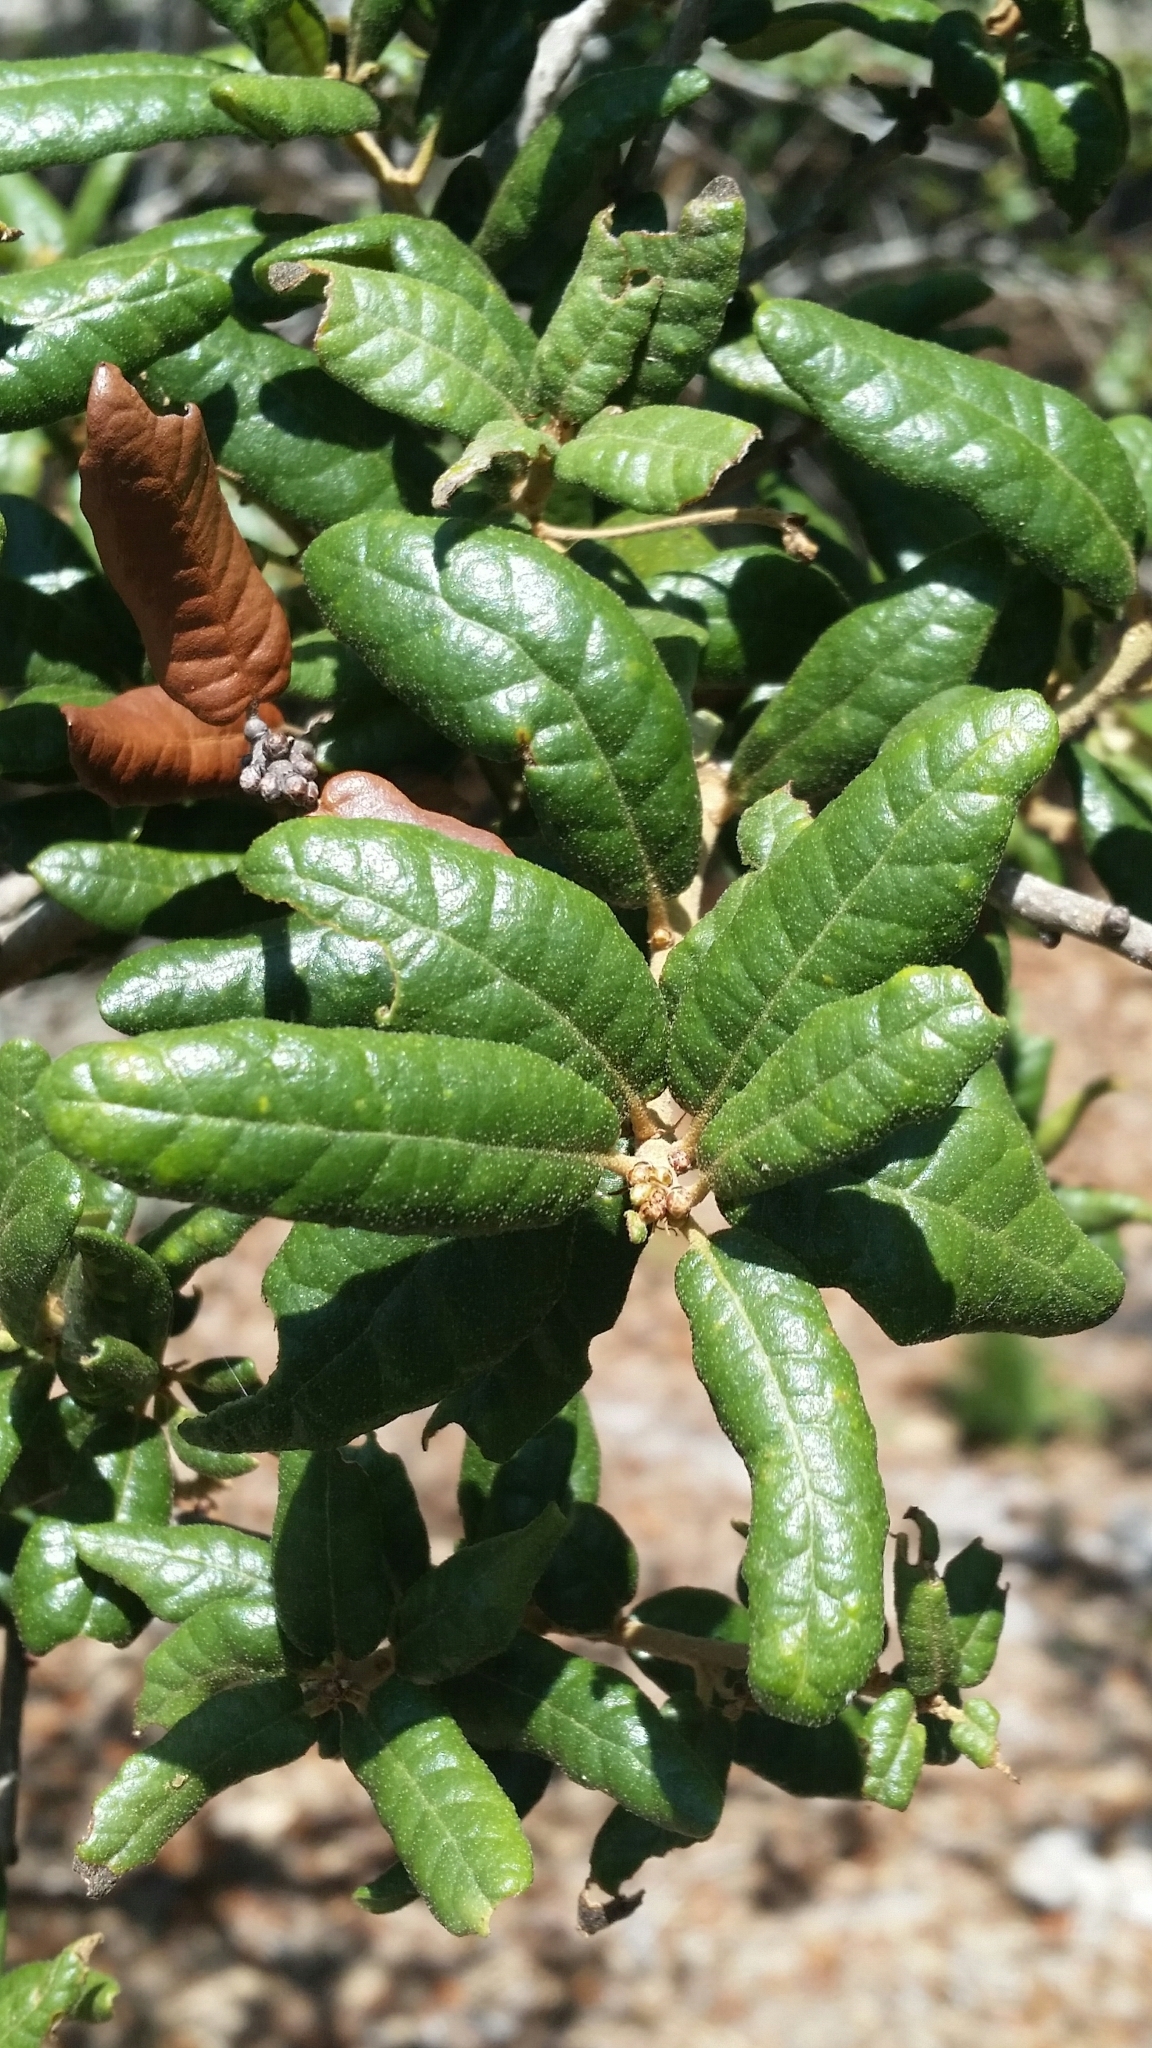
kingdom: Plantae
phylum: Tracheophyta
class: Magnoliopsida
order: Fagales
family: Fagaceae
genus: Quercus
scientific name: Quercus geminata
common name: Sand live oak
